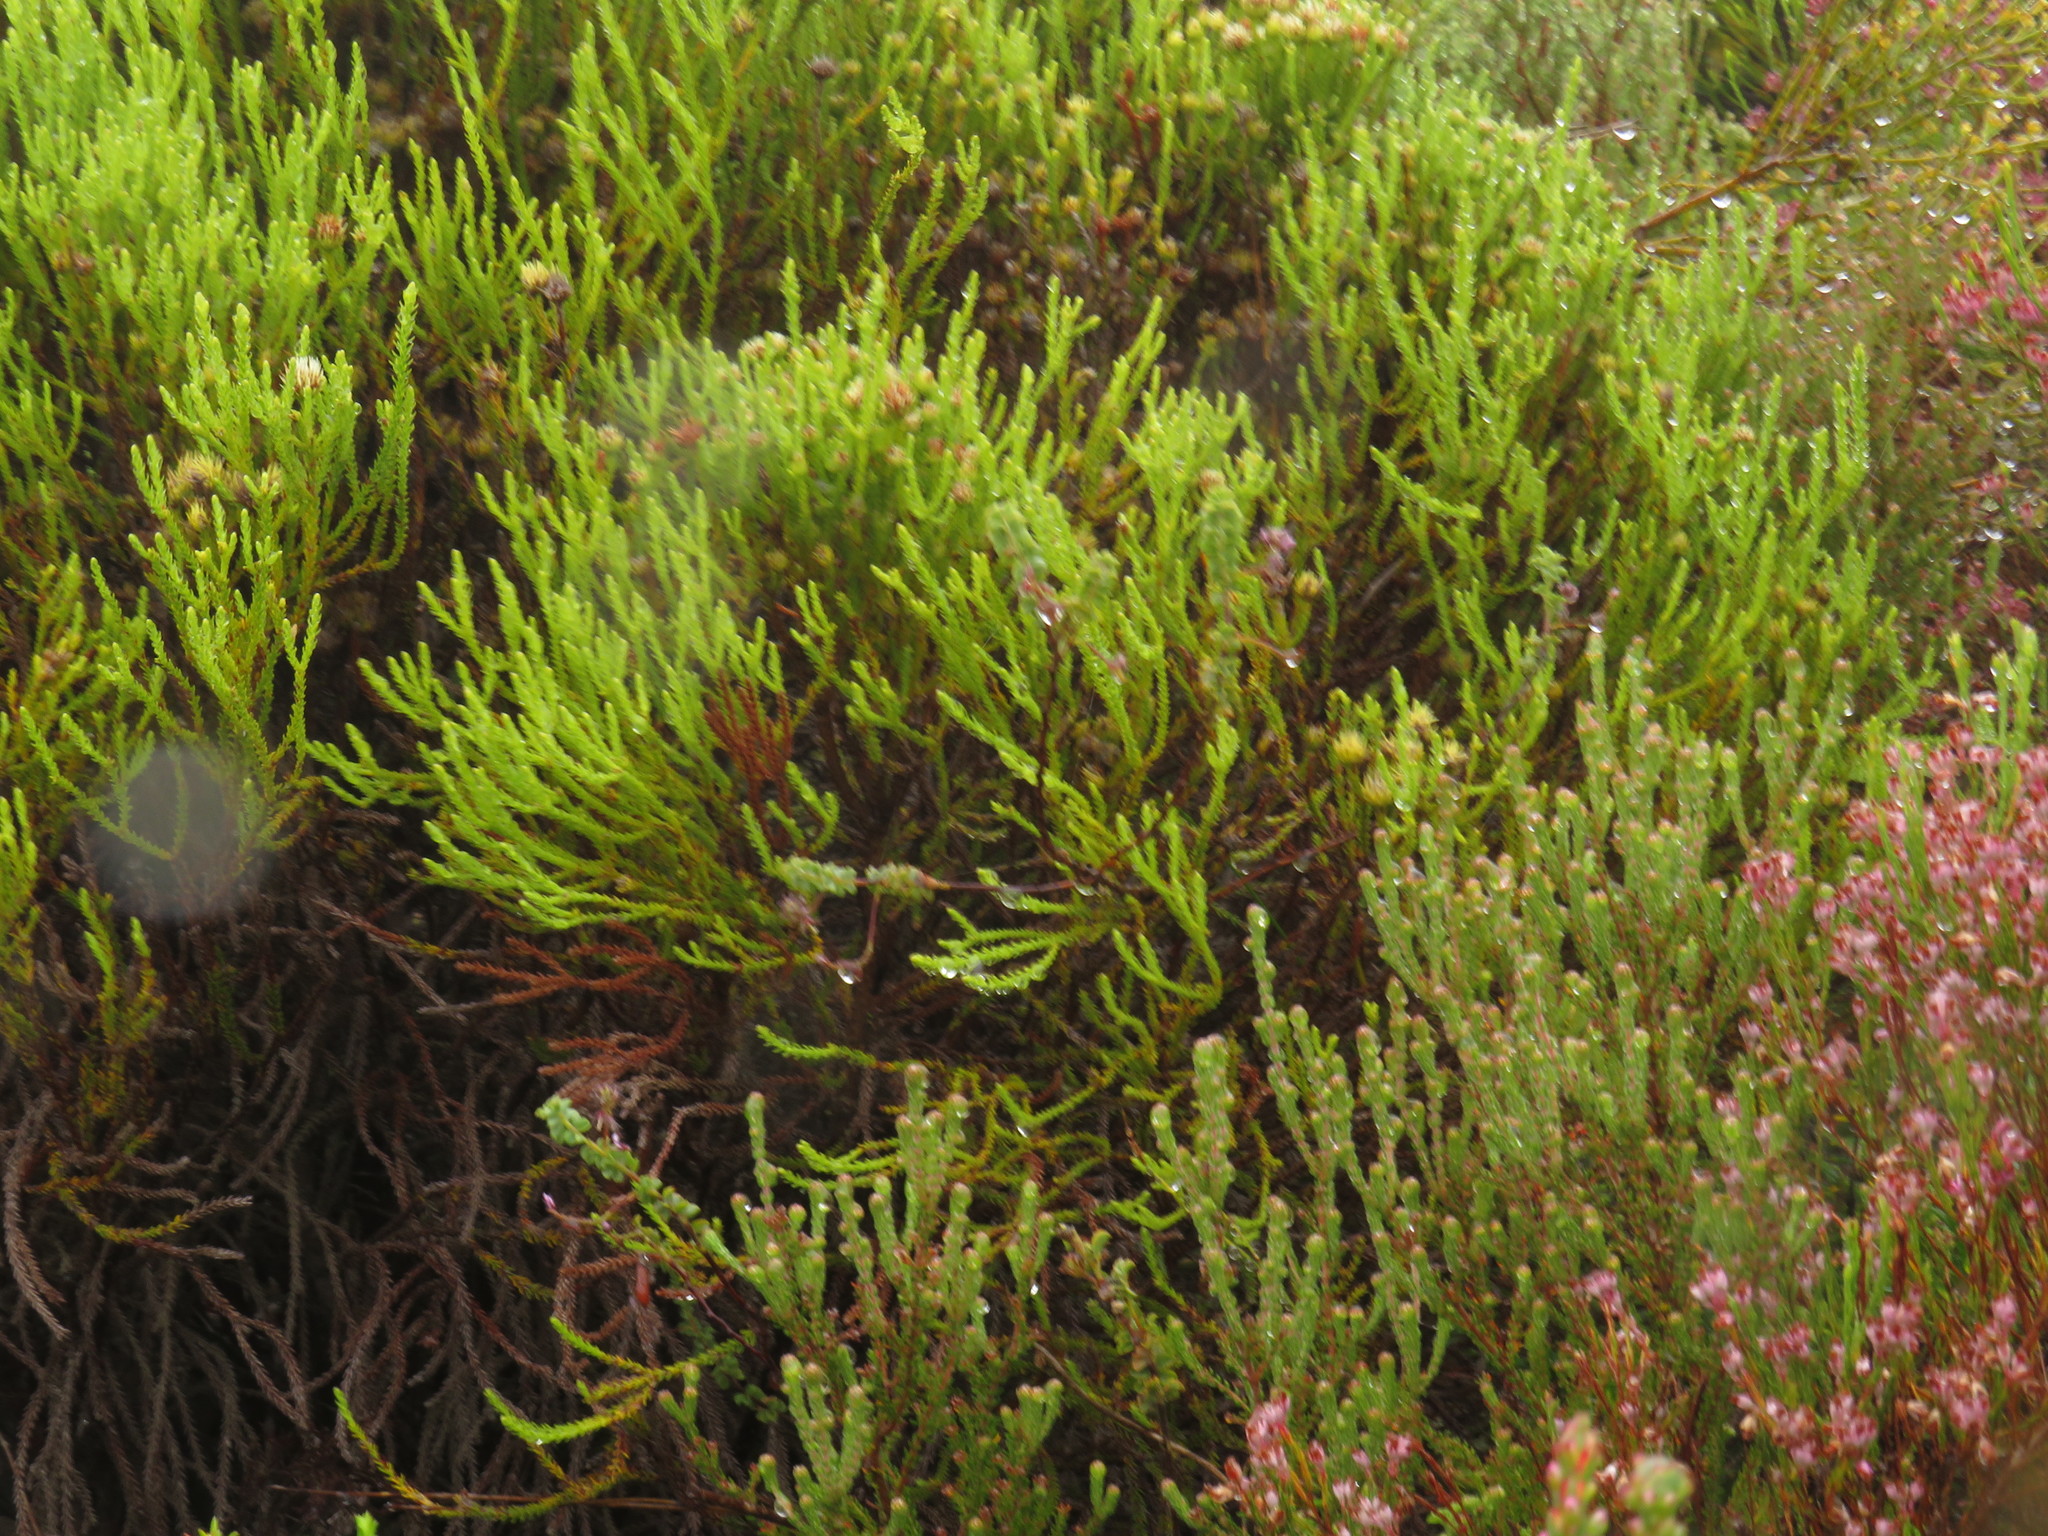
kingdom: Plantae
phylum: Tracheophyta
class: Magnoliopsida
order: Fabales
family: Fabaceae
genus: Indigofera
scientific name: Indigofera alopecuroides
